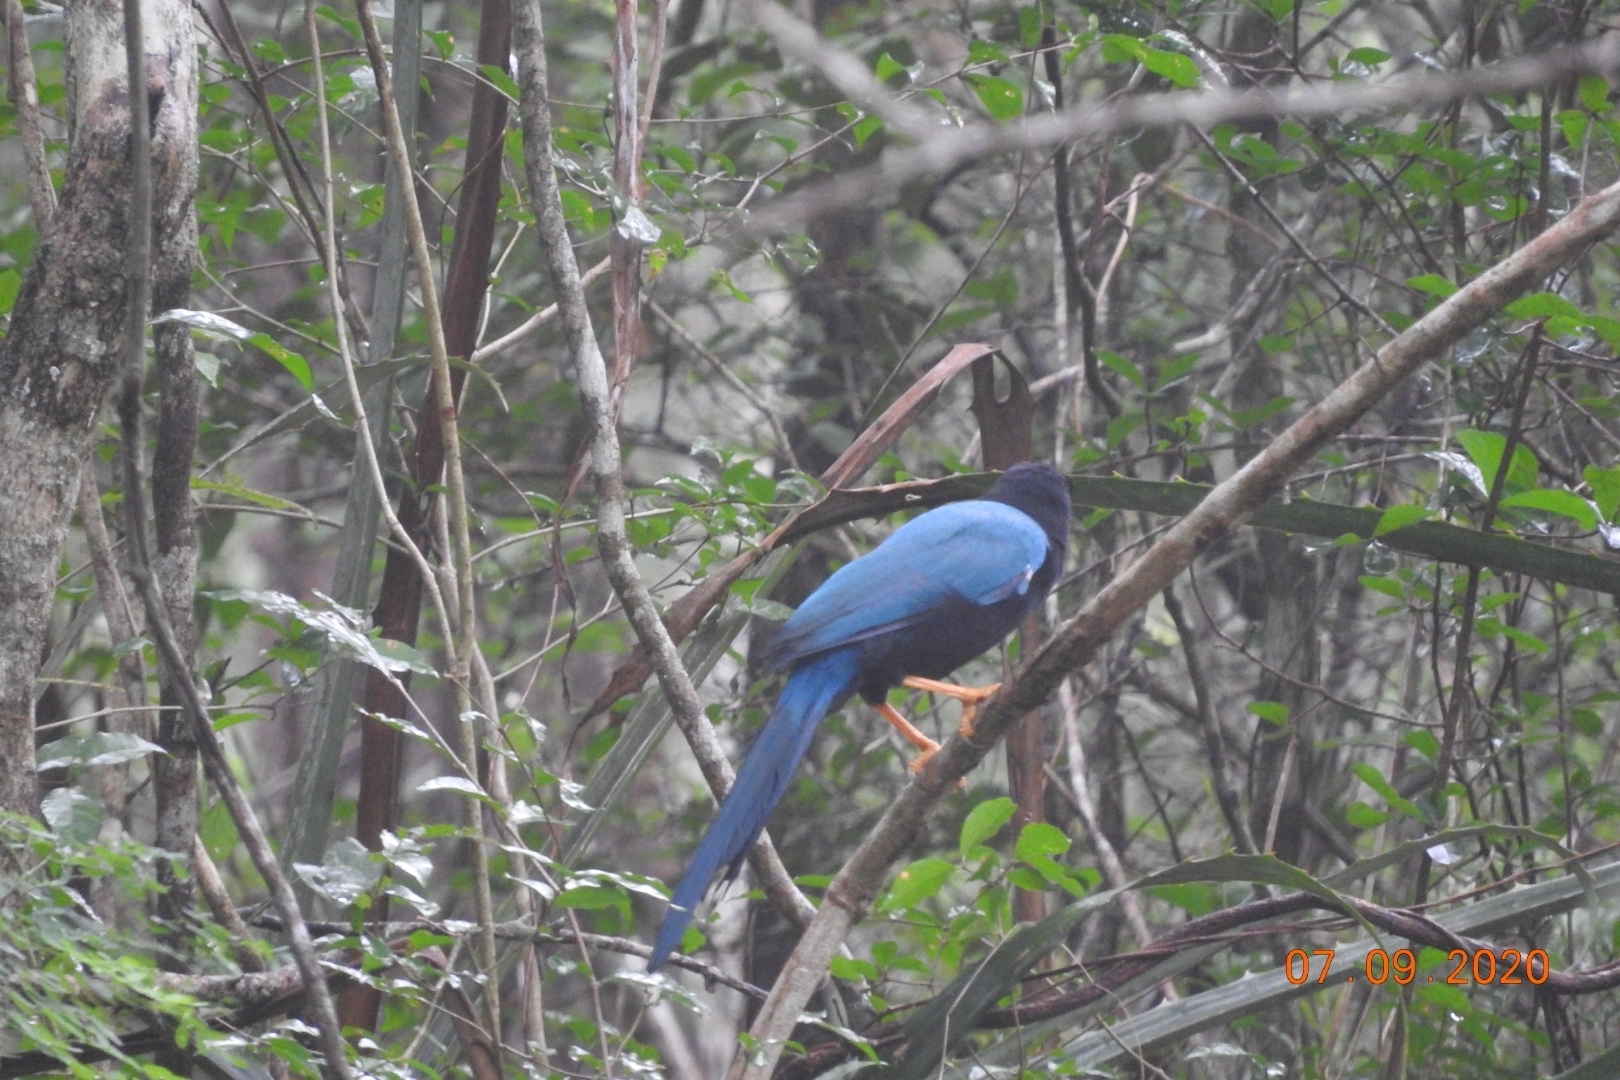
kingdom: Animalia
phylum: Chordata
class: Aves
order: Passeriformes
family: Corvidae
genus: Cyanocorax
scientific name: Cyanocorax yucatanicus
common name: Yucatan jay
